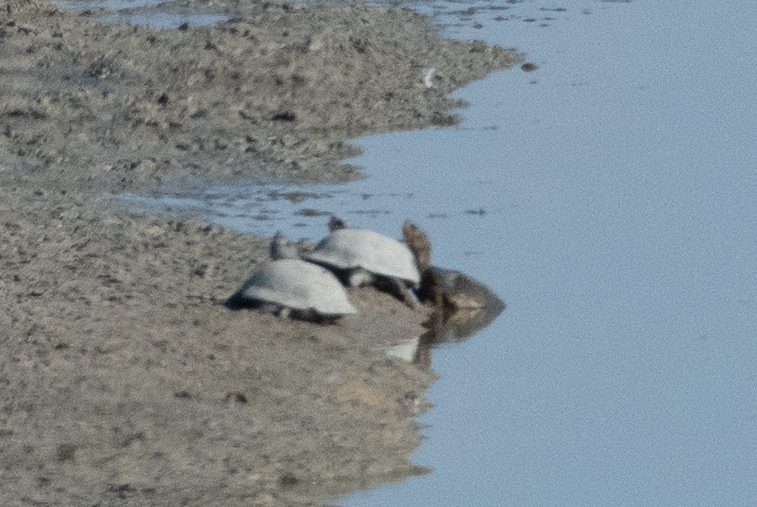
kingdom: Animalia
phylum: Chordata
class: Testudines
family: Emydidae
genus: Actinemys
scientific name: Actinemys marmorata
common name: Western pond turtle
